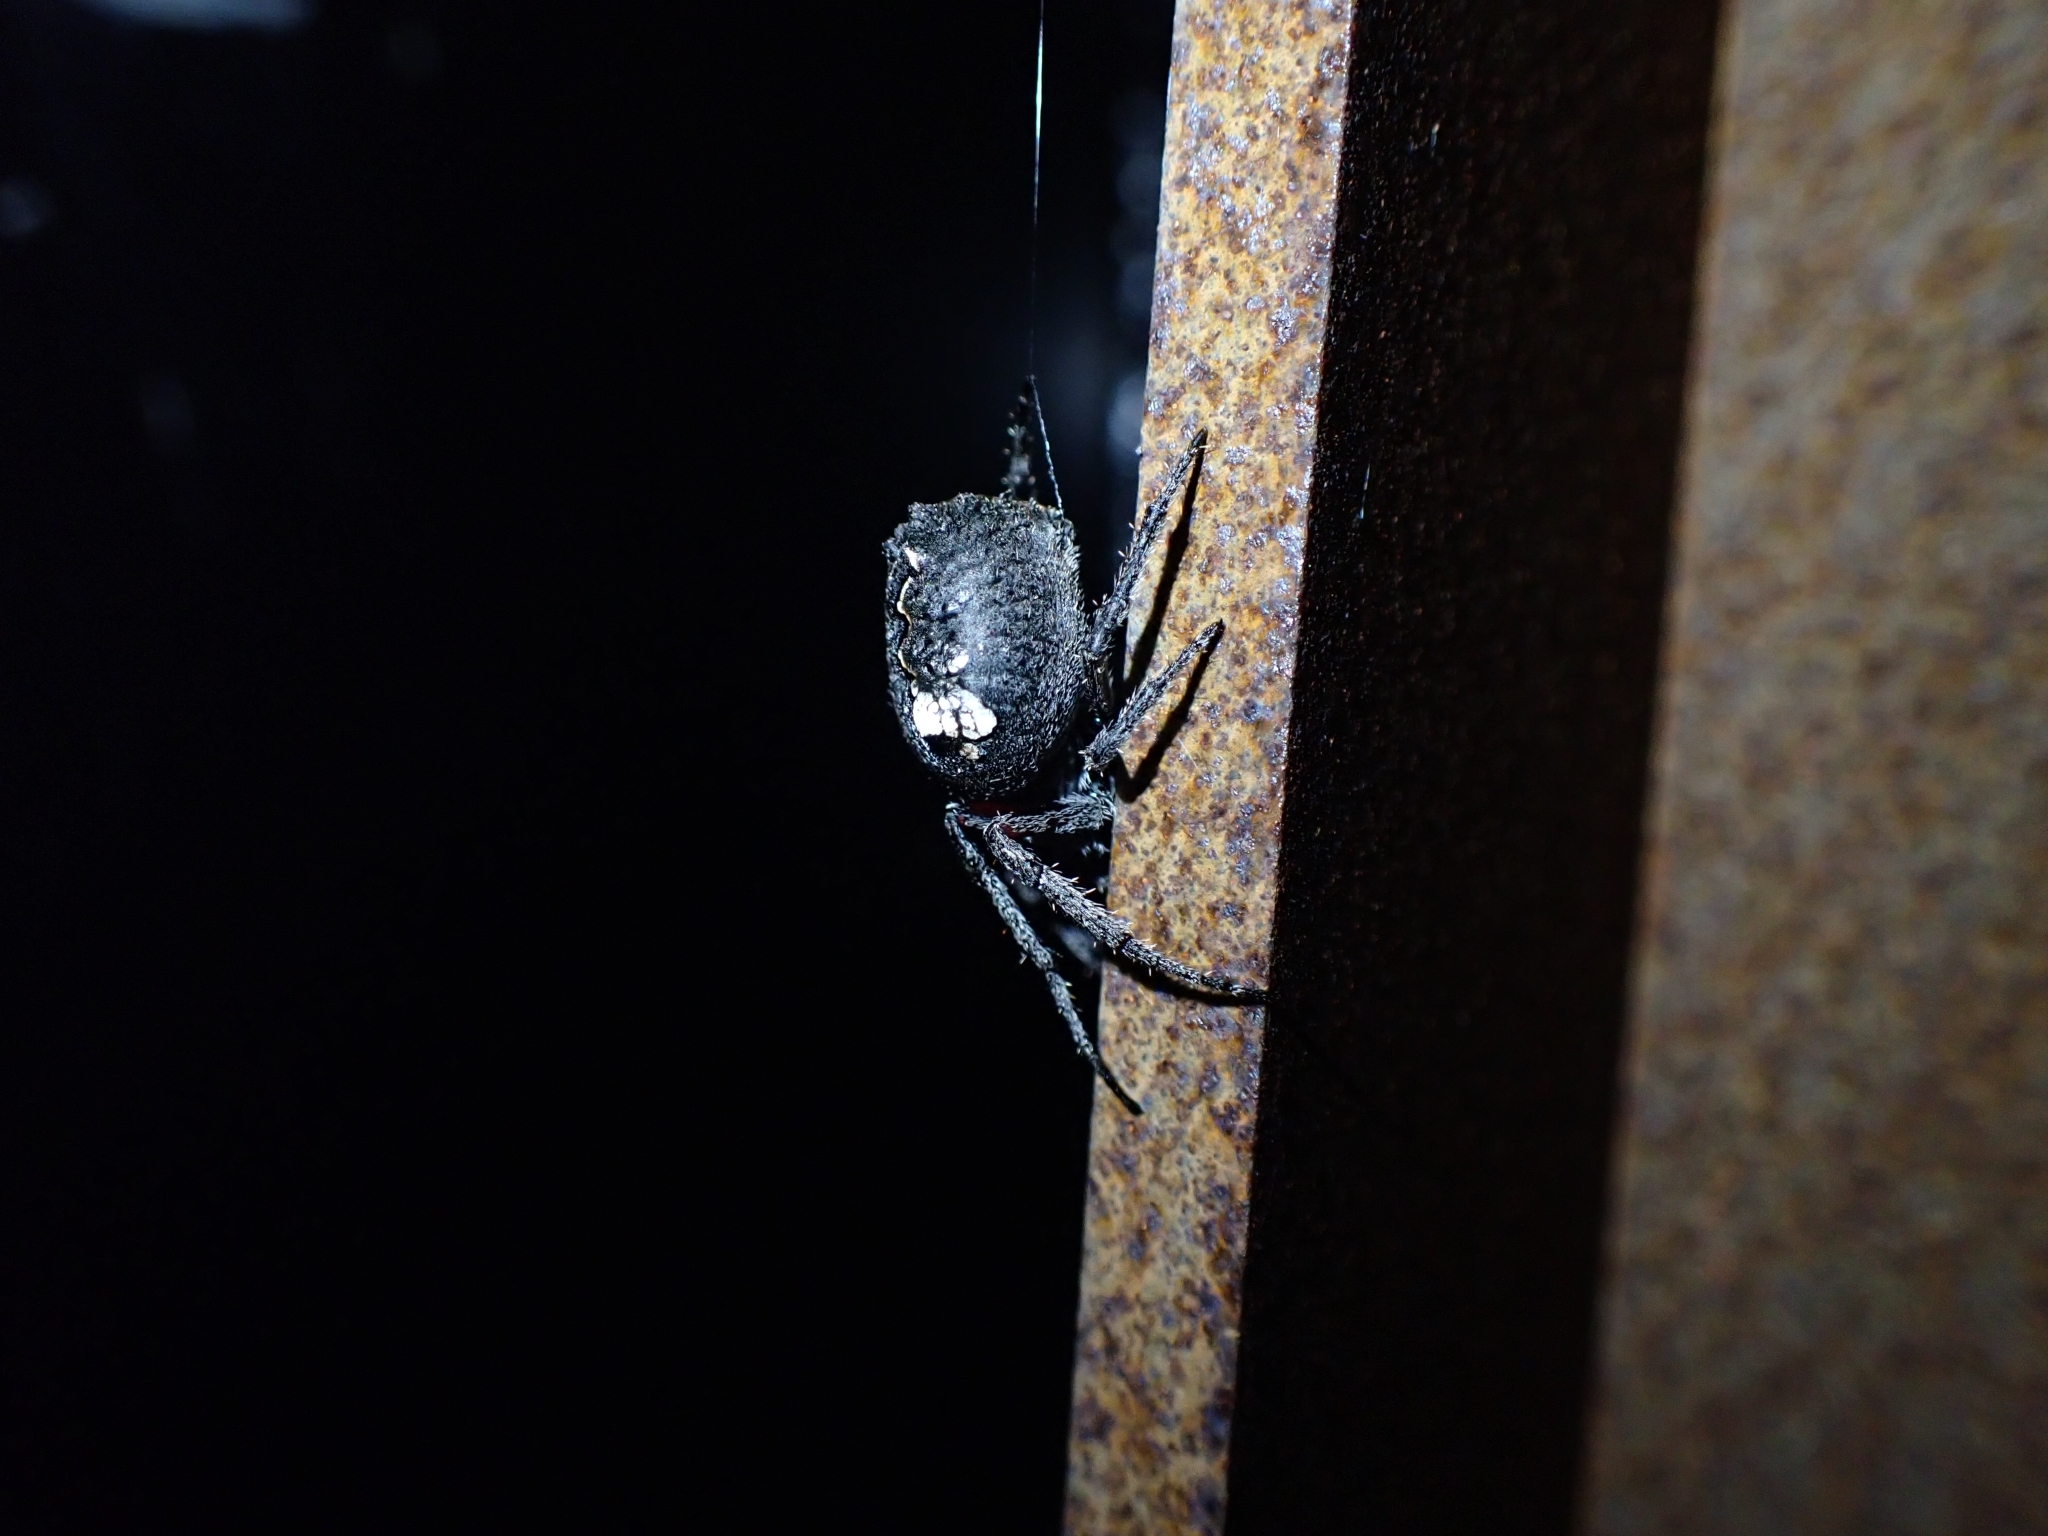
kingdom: Animalia
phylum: Arthropoda
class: Arachnida
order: Araneae
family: Araneidae
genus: Eriophora
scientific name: Eriophora pustulosa
